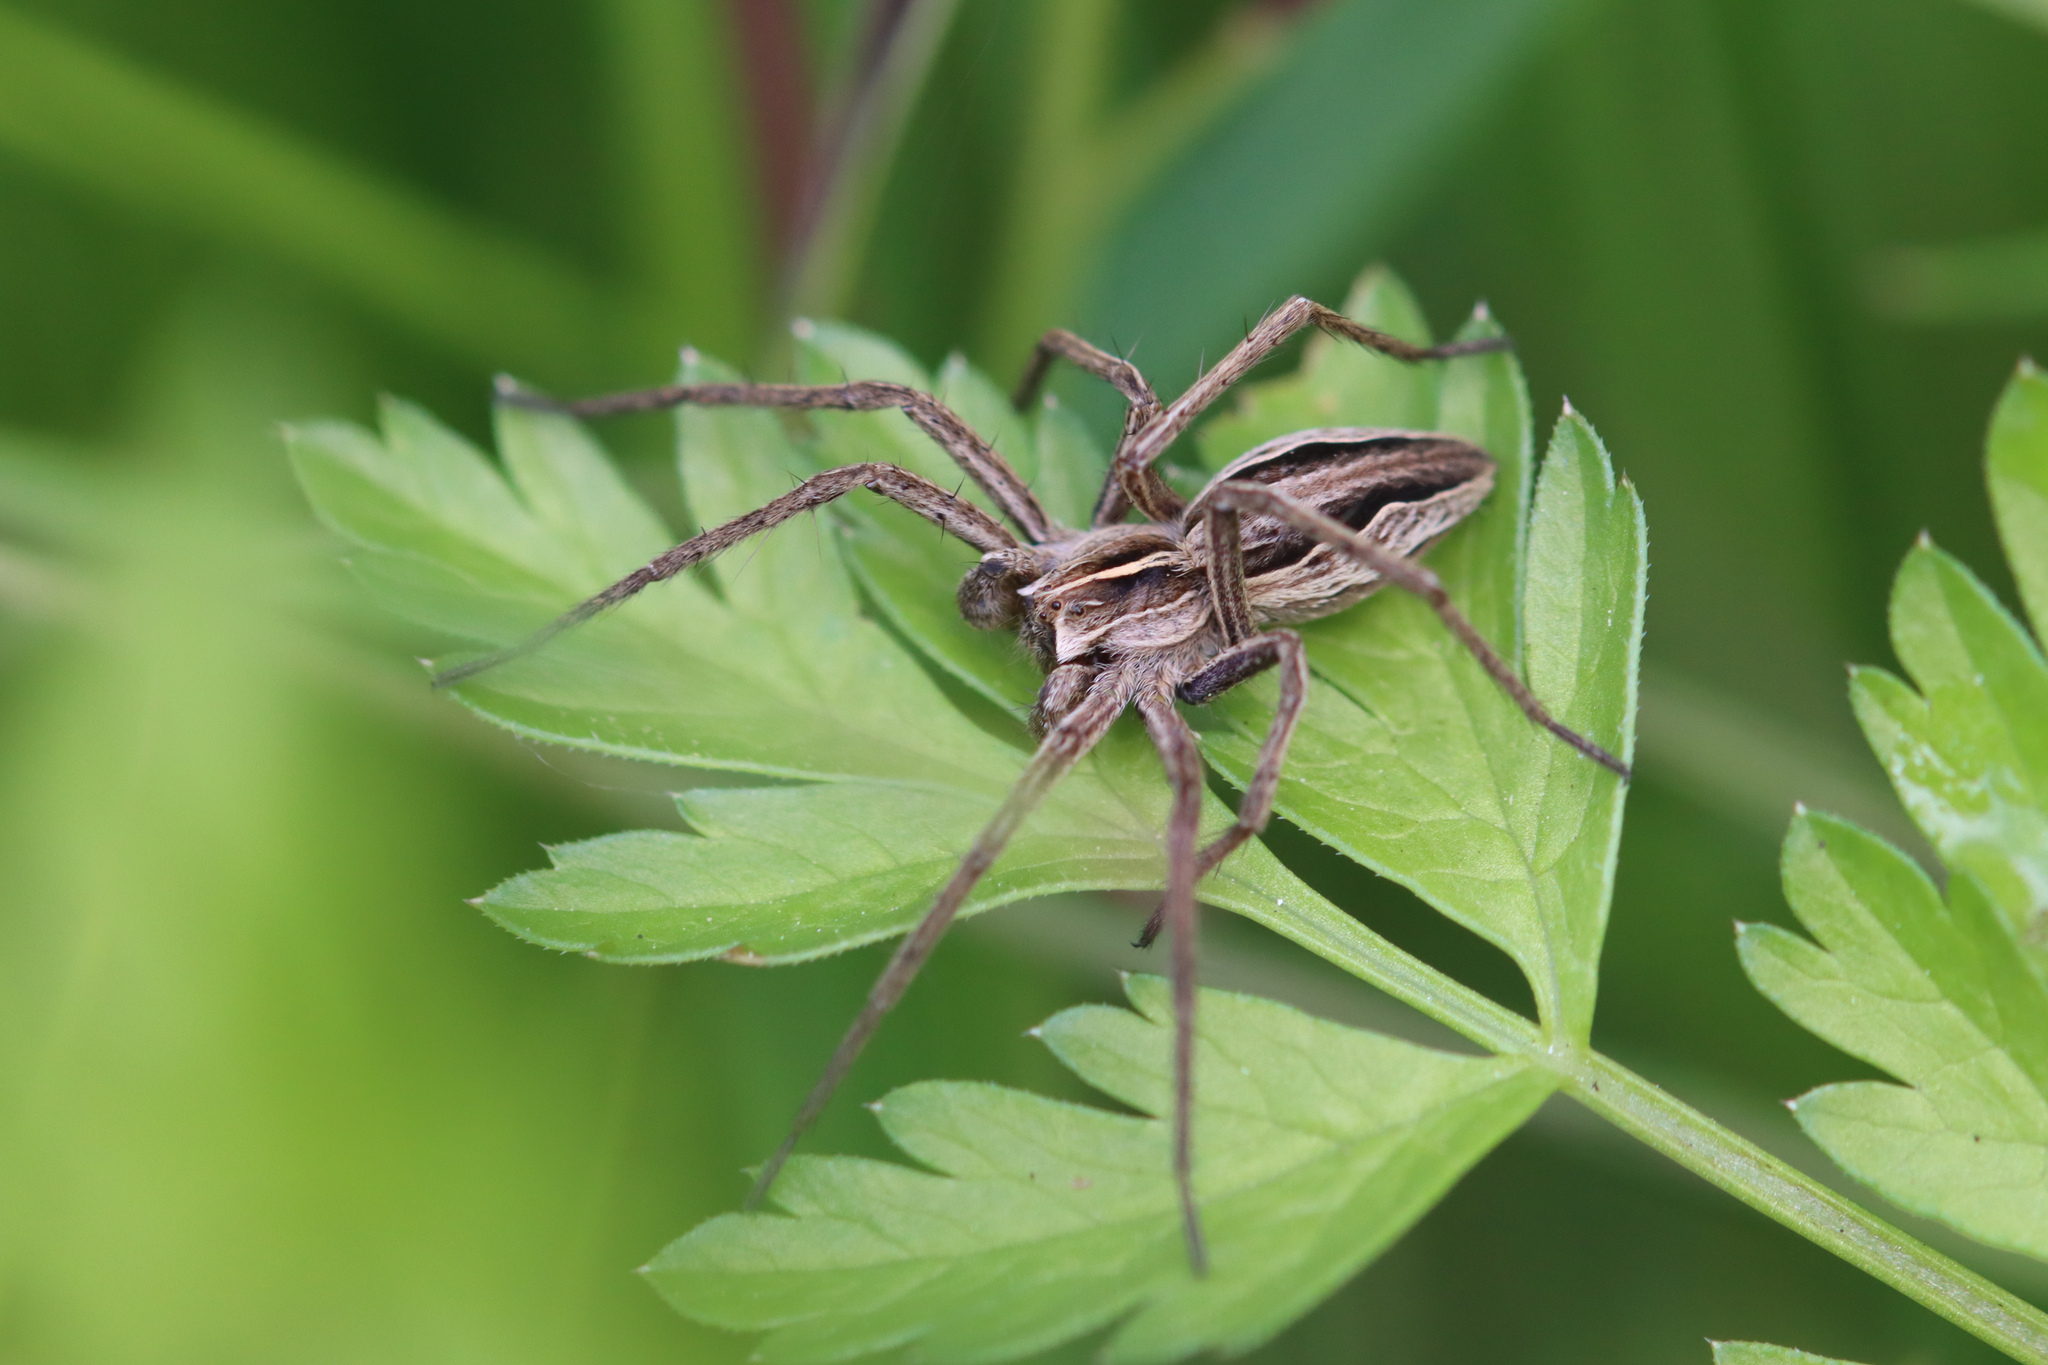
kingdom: Animalia
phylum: Arthropoda
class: Arachnida
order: Araneae
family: Pisauridae
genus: Pisaura
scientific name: Pisaura mirabilis
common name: Tent spider
